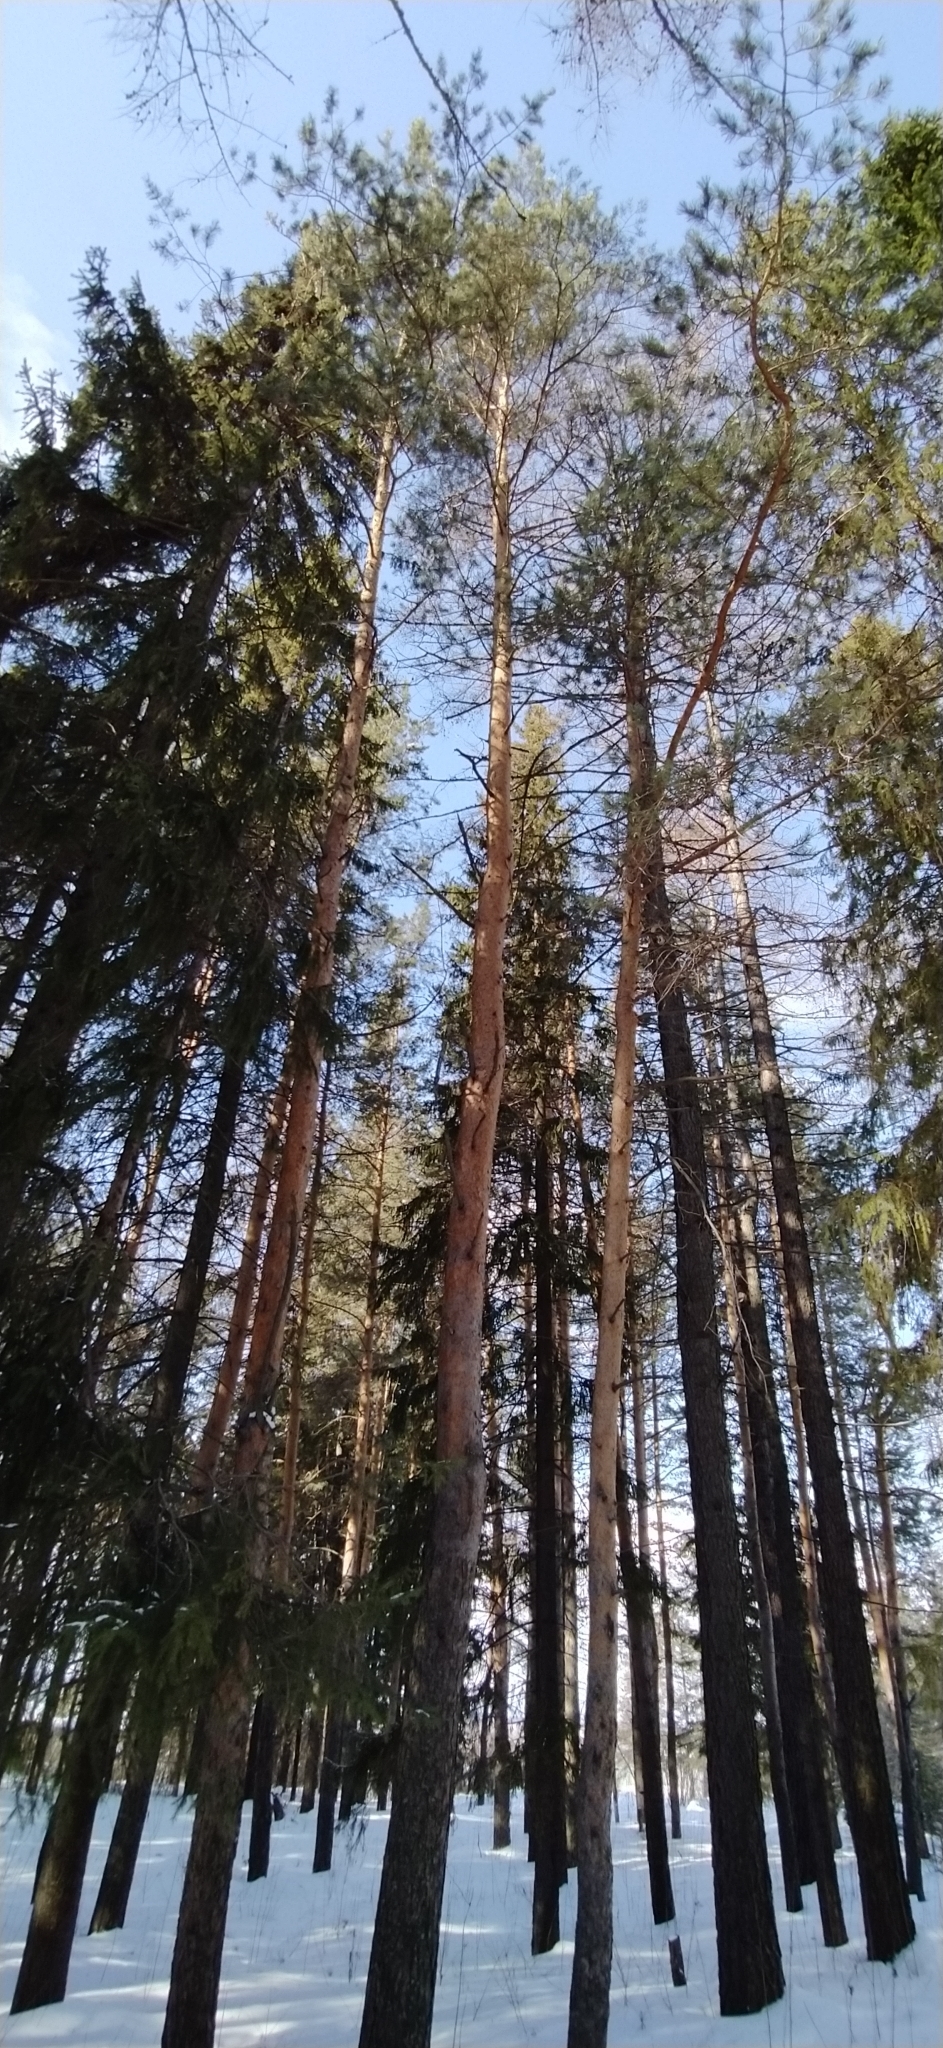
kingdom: Plantae
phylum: Tracheophyta
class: Pinopsida
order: Pinales
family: Pinaceae
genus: Pinus
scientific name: Pinus sylvestris
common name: Scots pine
